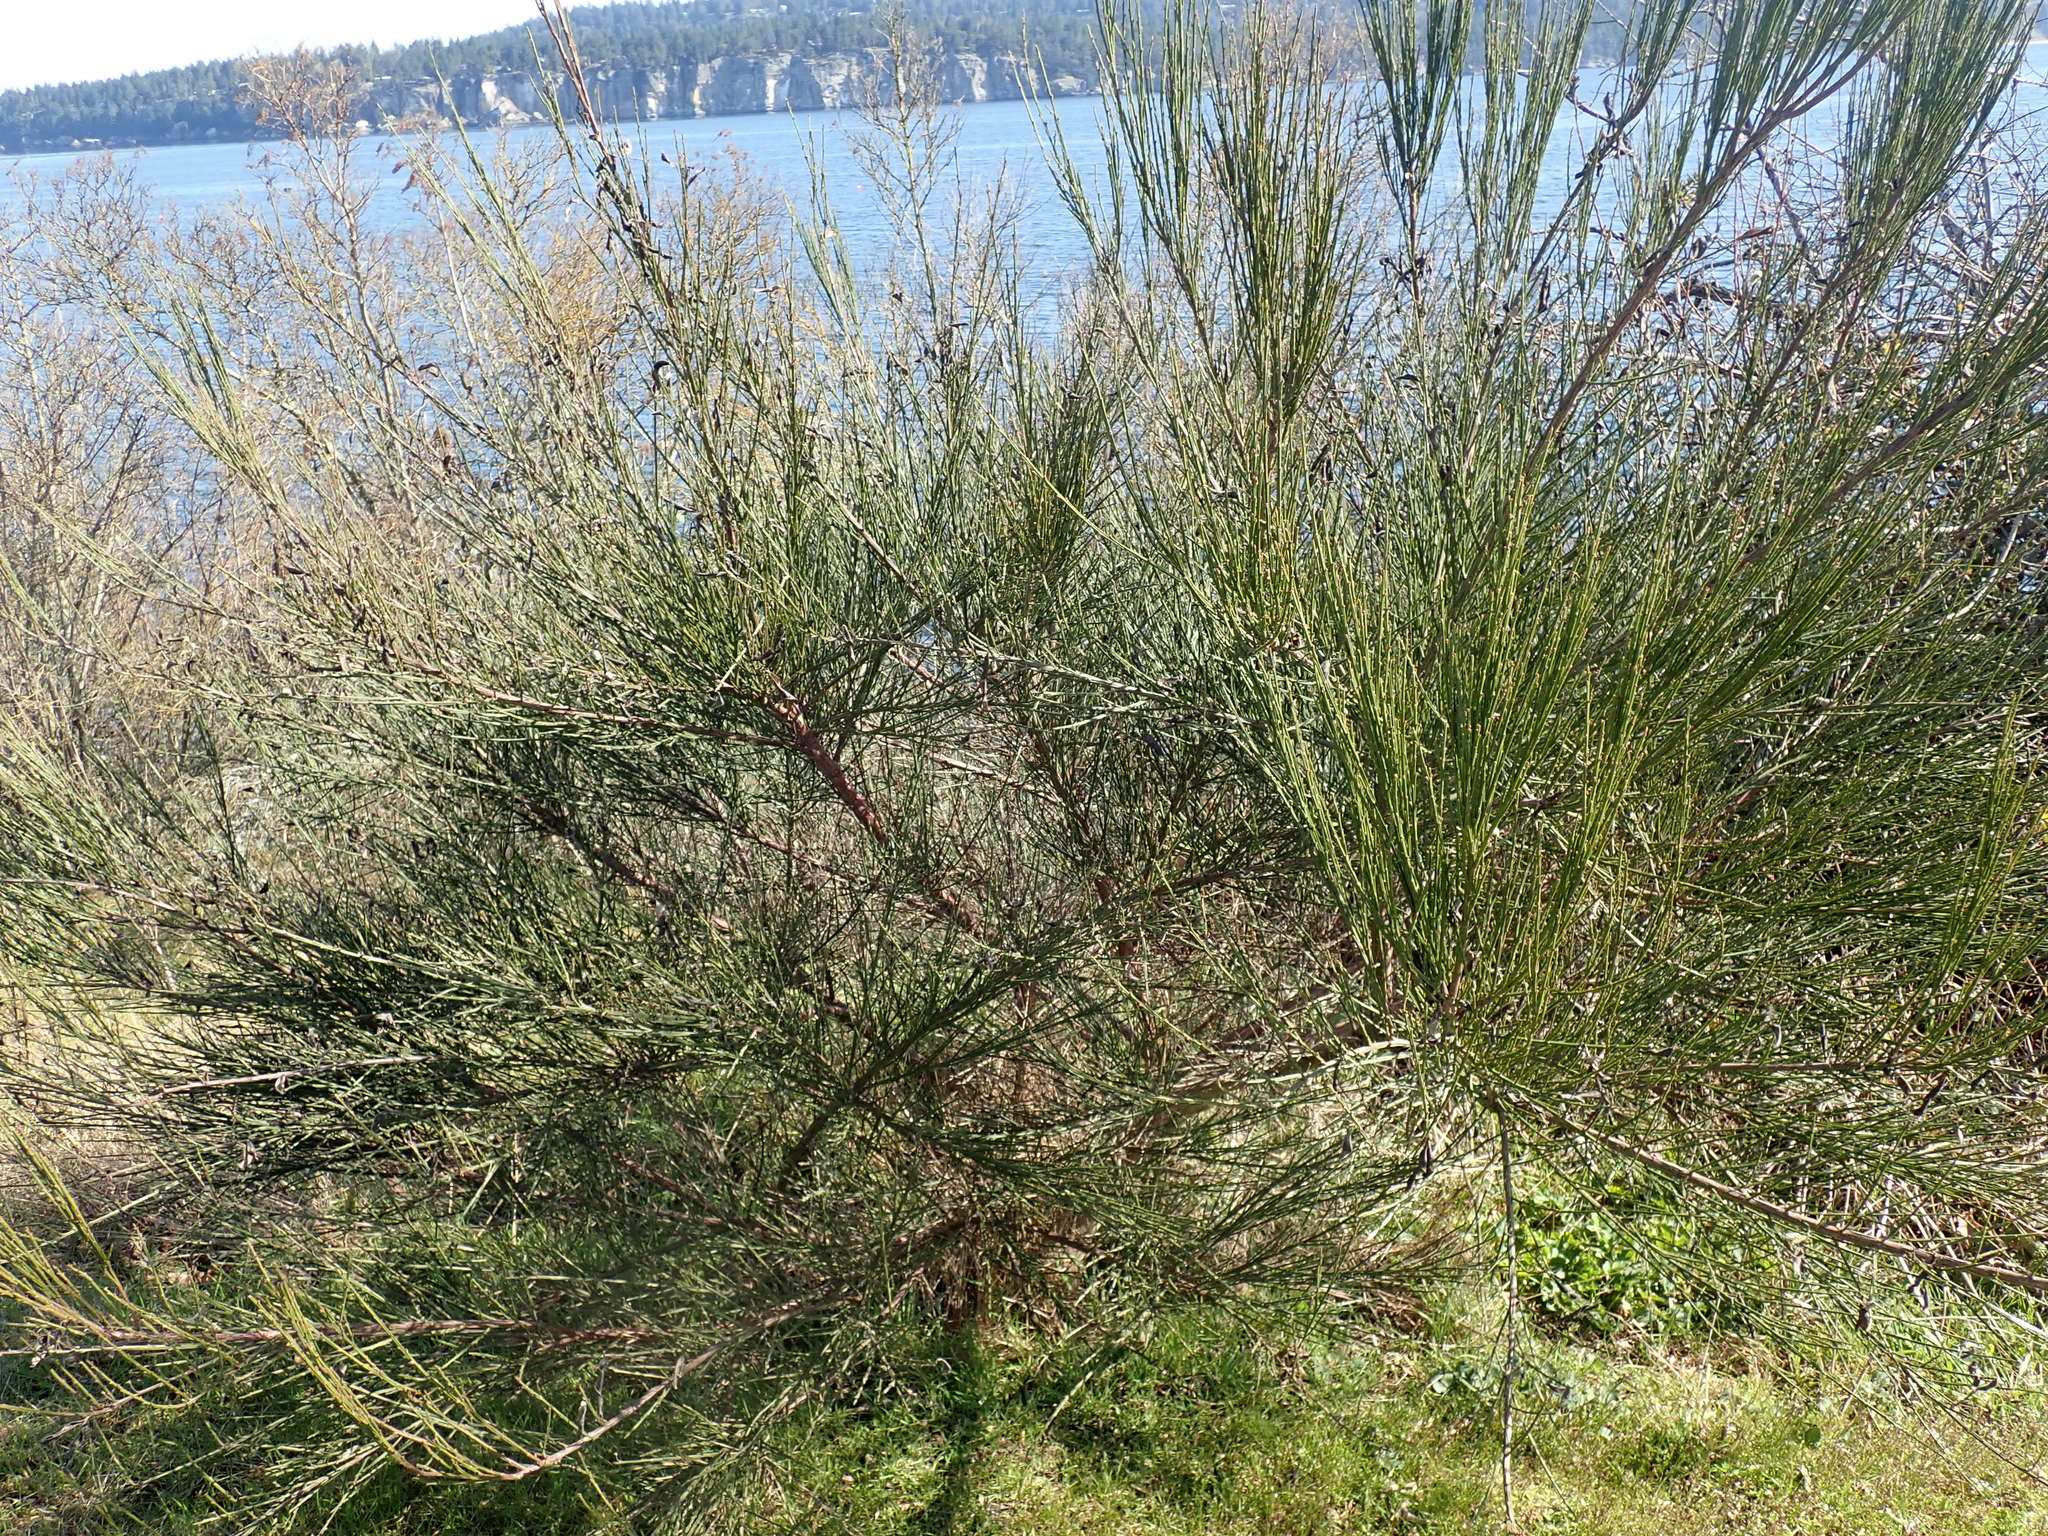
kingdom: Plantae
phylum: Tracheophyta
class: Magnoliopsida
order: Fabales
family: Fabaceae
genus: Cytisus
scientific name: Cytisus scoparius
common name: Scotch broom
